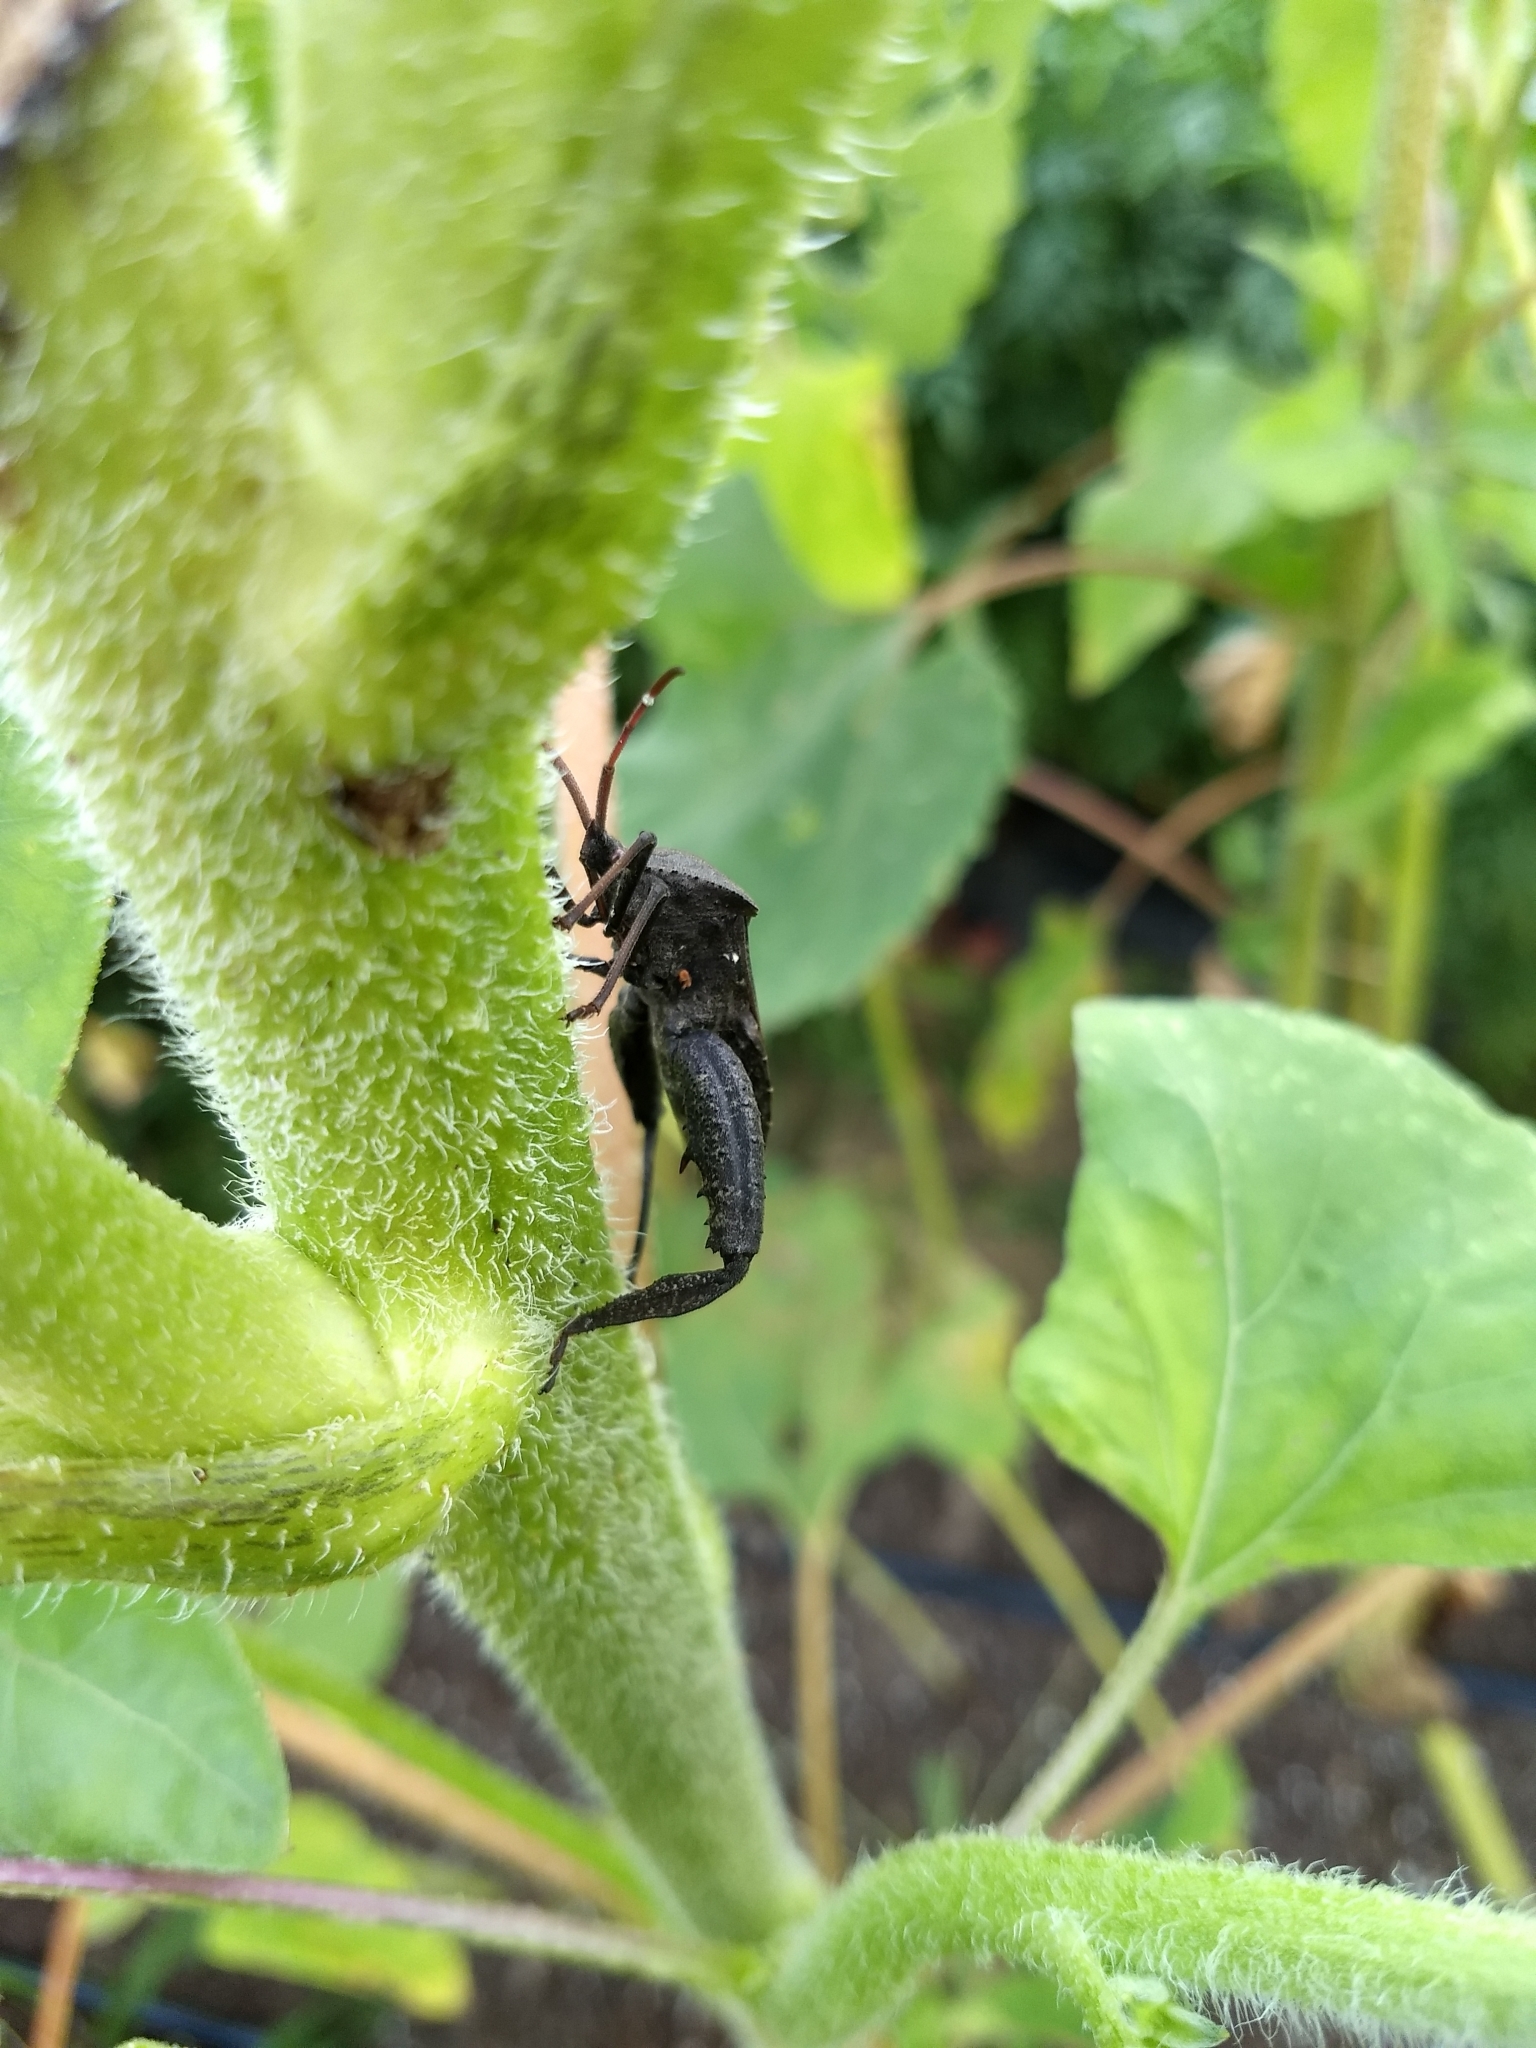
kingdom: Animalia
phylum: Arthropoda
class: Insecta
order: Hemiptera
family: Coreidae
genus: Acanthocephala
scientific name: Acanthocephala femorata
